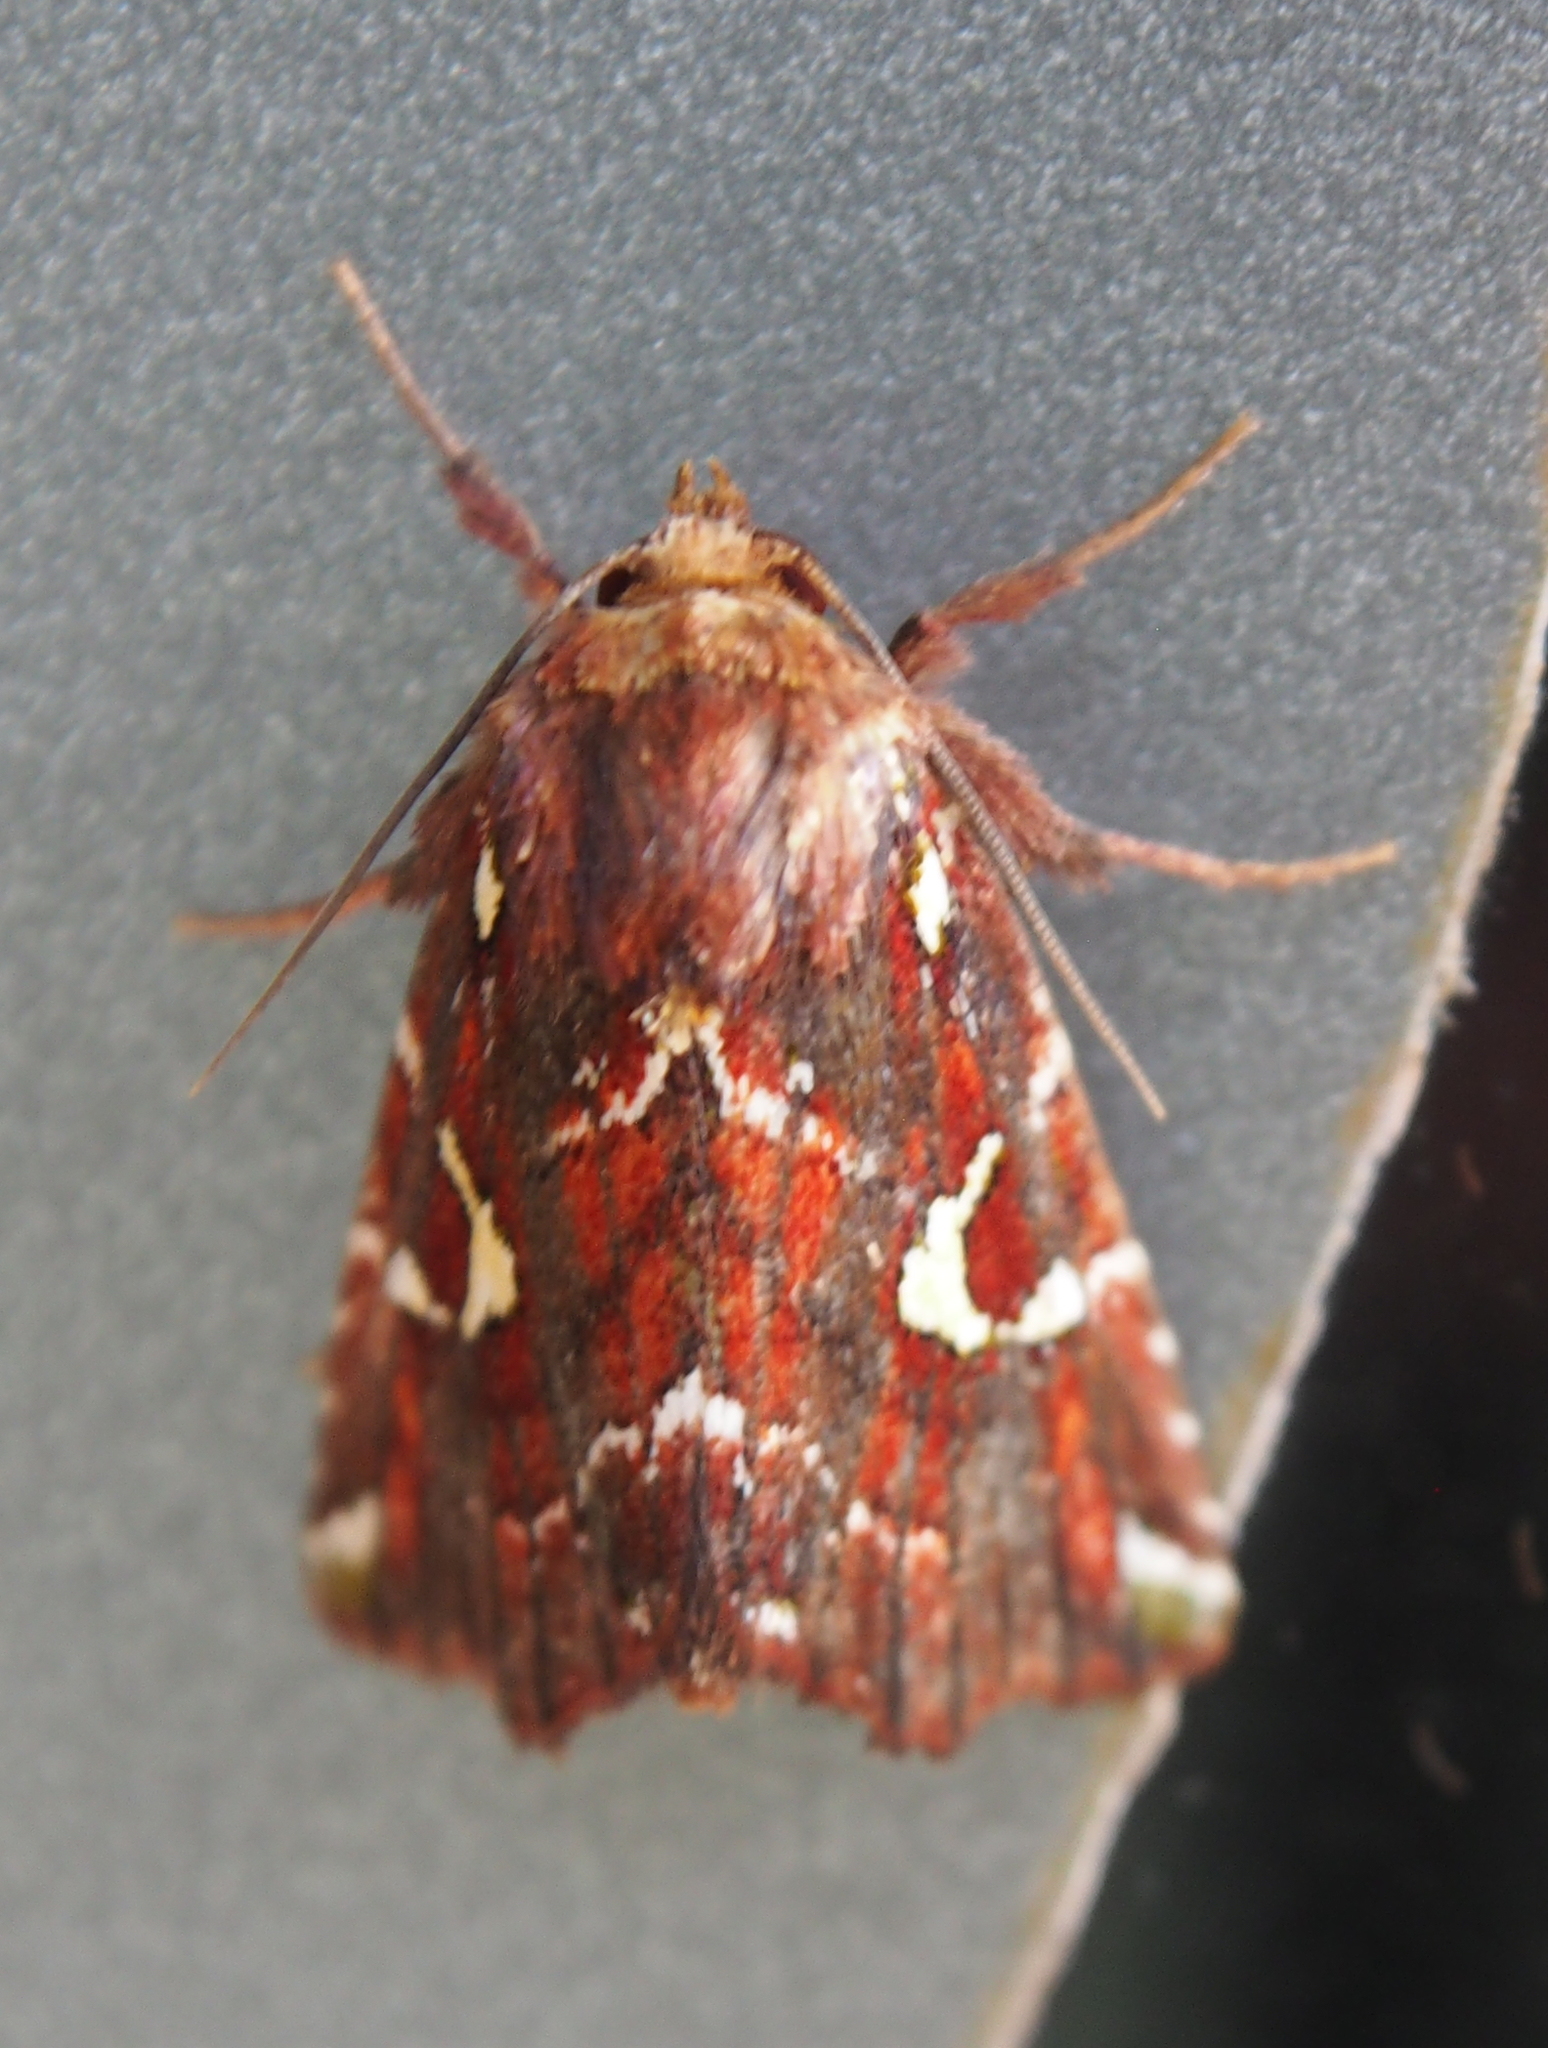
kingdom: Animalia
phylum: Arthropoda
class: Insecta
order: Lepidoptera
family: Noctuidae
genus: Leucosigma
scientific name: Leucosigma uncifera
